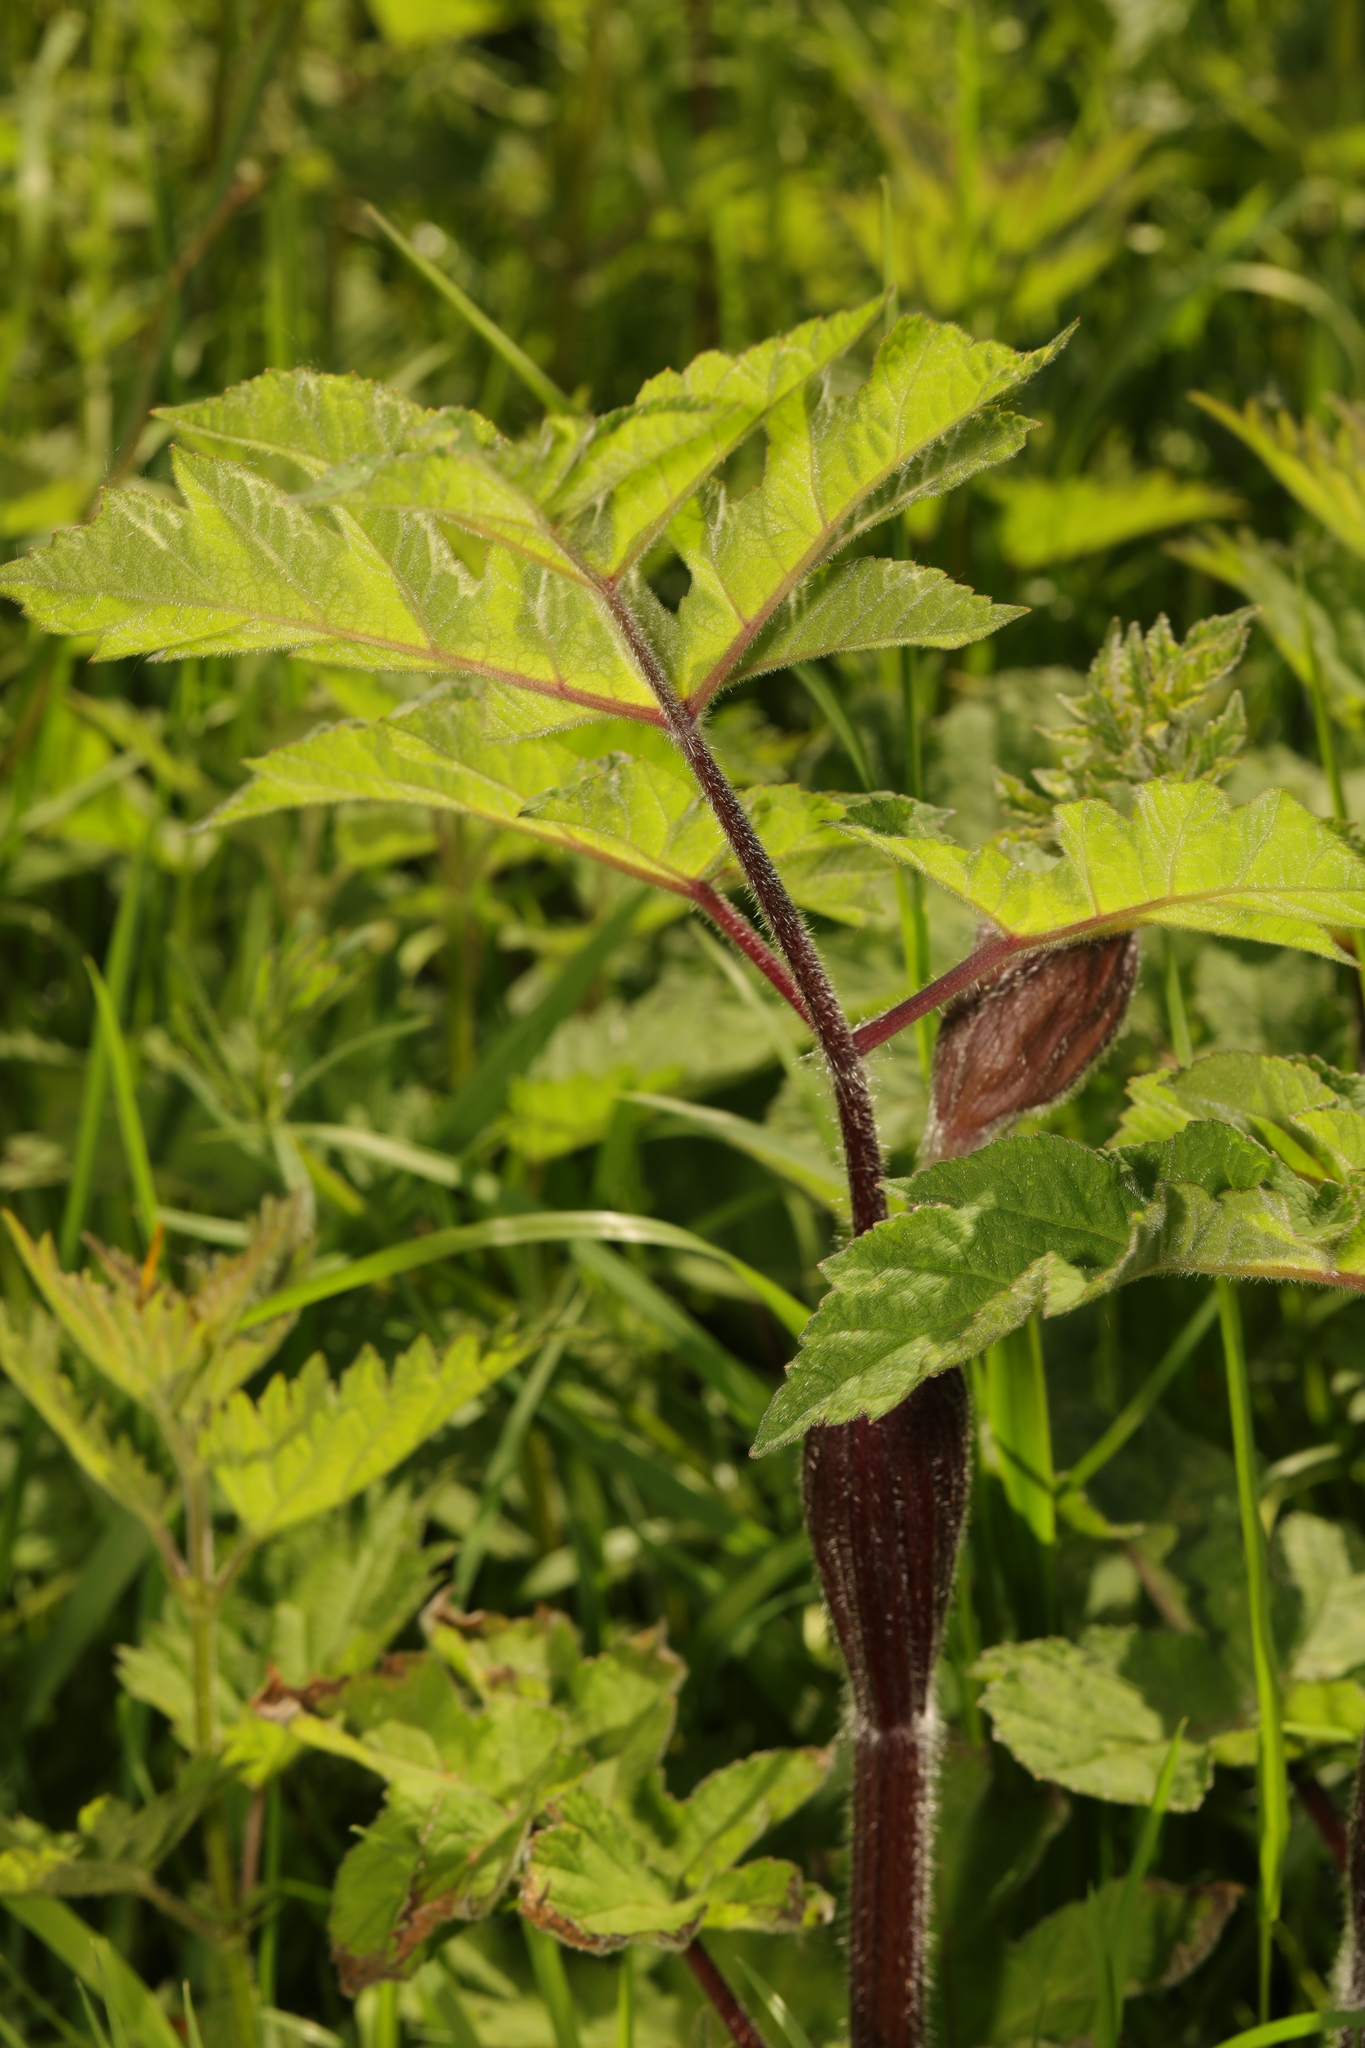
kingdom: Plantae
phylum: Tracheophyta
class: Magnoliopsida
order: Apiales
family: Apiaceae
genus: Heracleum
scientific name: Heracleum sphondylium
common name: Hogweed
